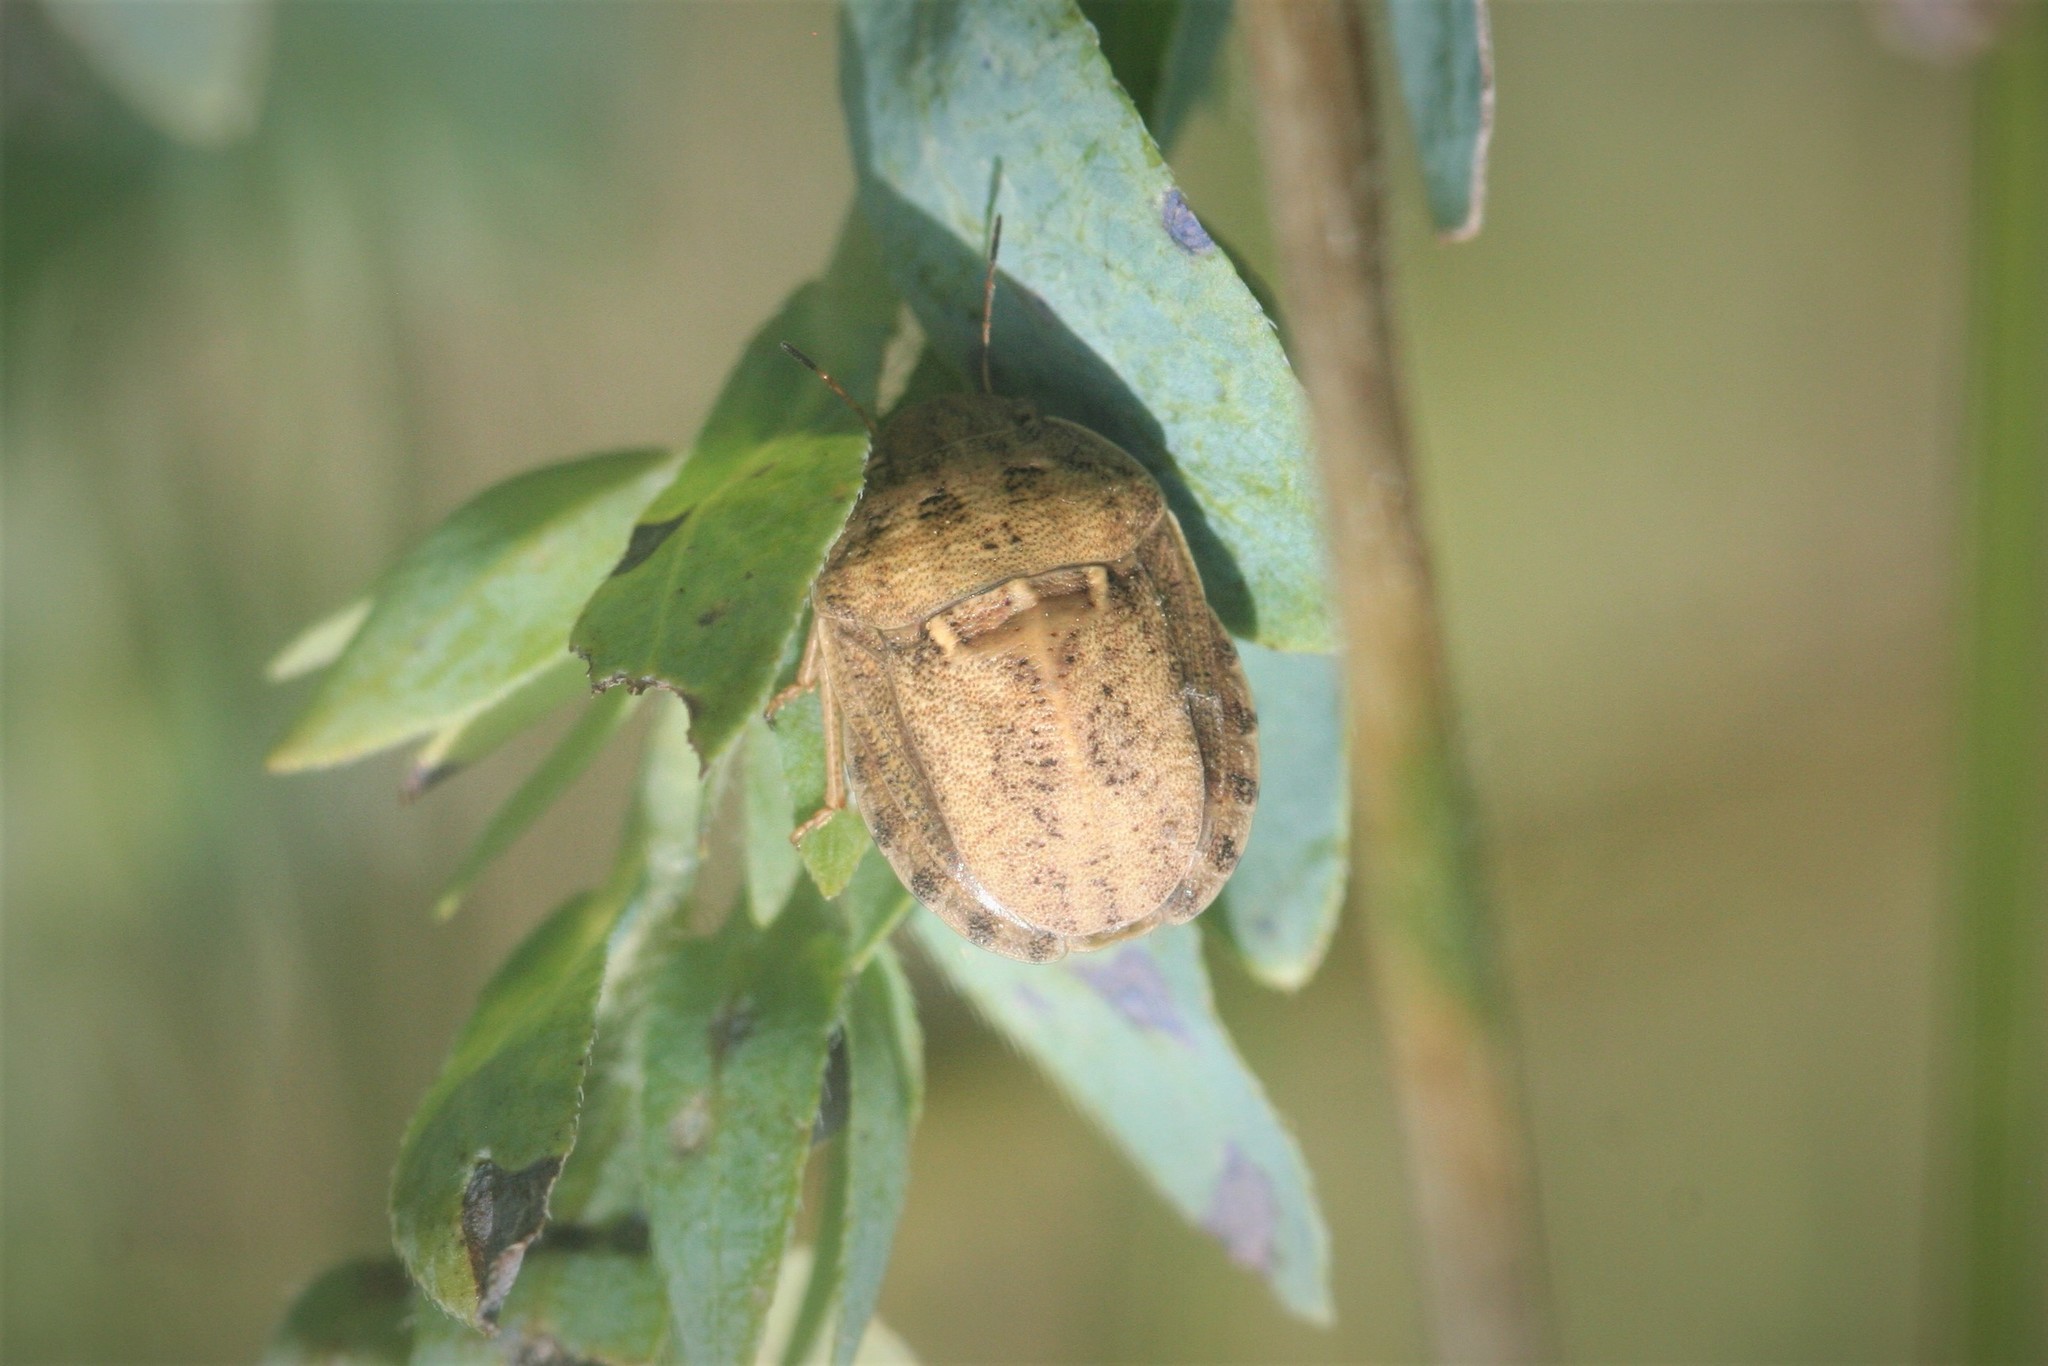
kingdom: Animalia
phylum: Arthropoda
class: Insecta
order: Hemiptera
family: Scutelleridae
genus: Eurygaster
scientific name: Eurygaster integriceps
